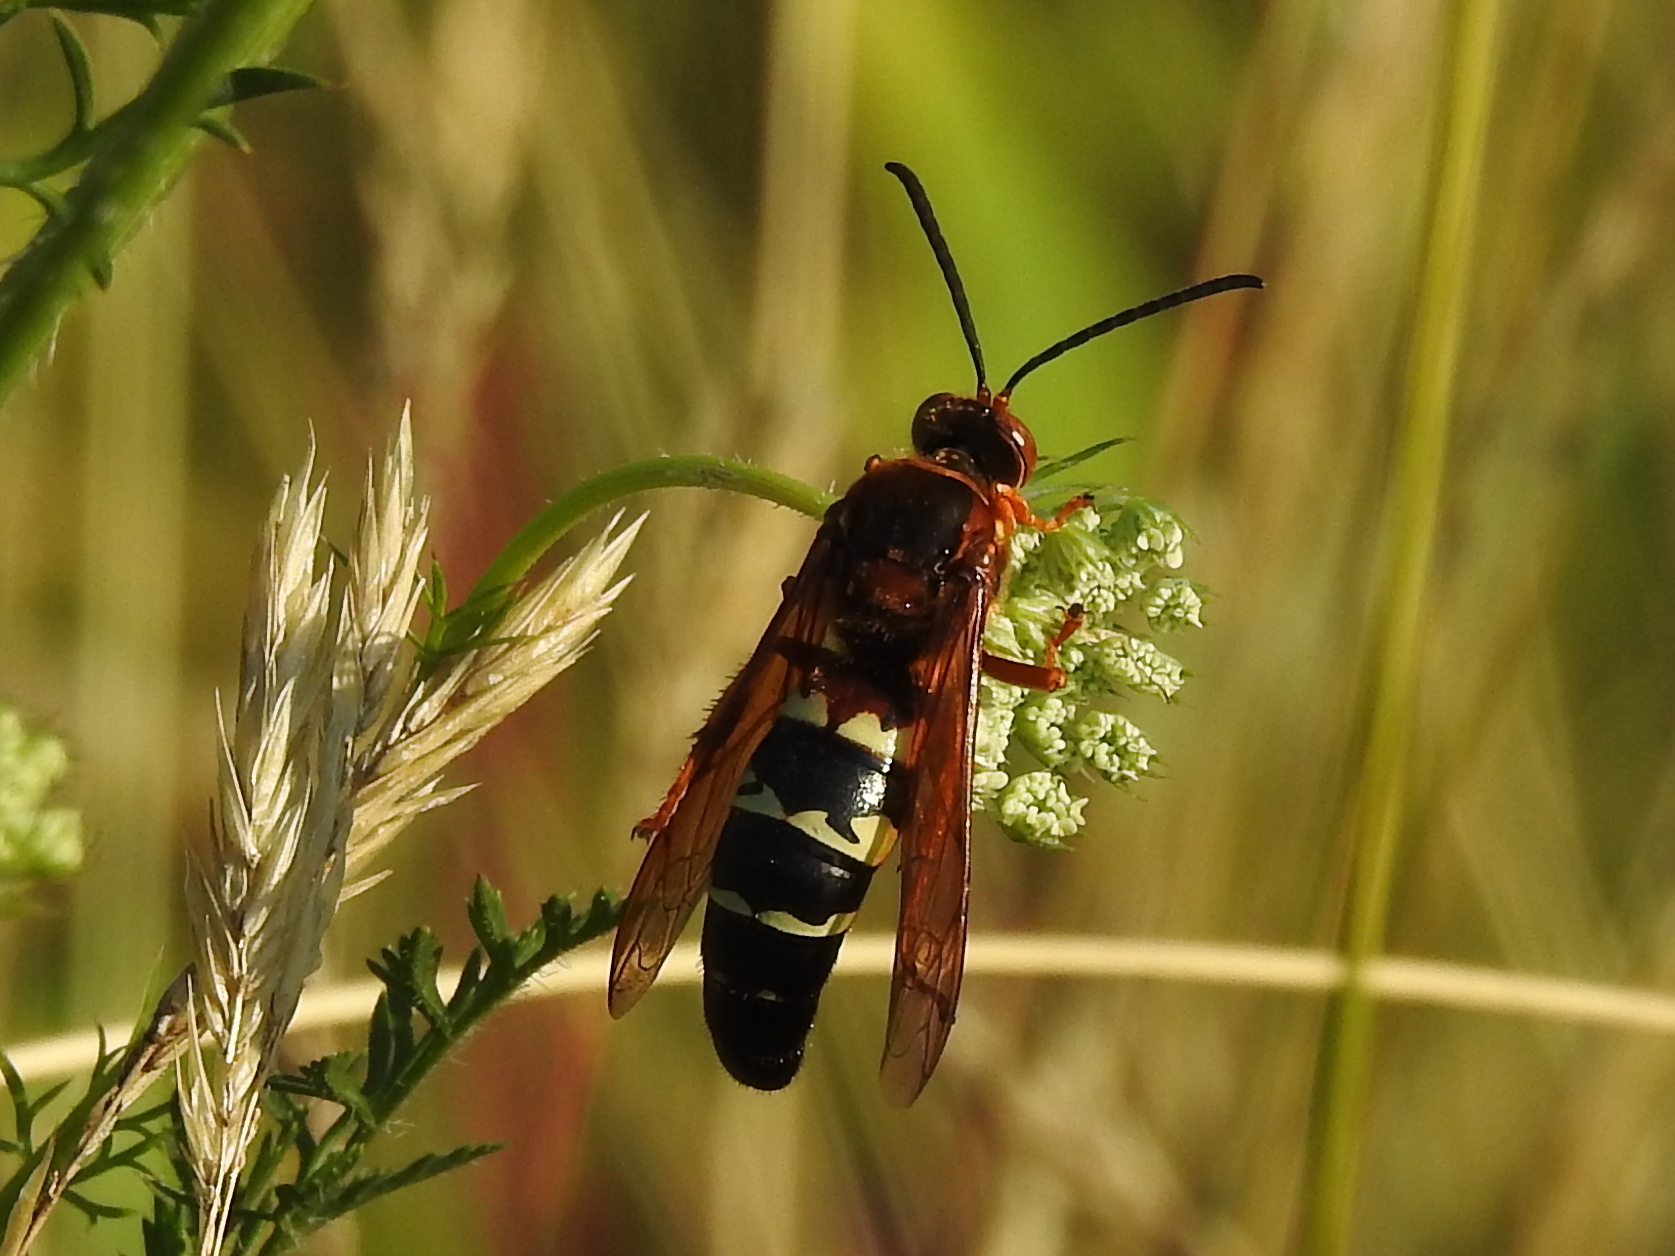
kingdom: Animalia
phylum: Arthropoda
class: Insecta
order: Hymenoptera
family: Crabronidae
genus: Sphecius
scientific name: Sphecius speciosus
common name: Cicada killer
